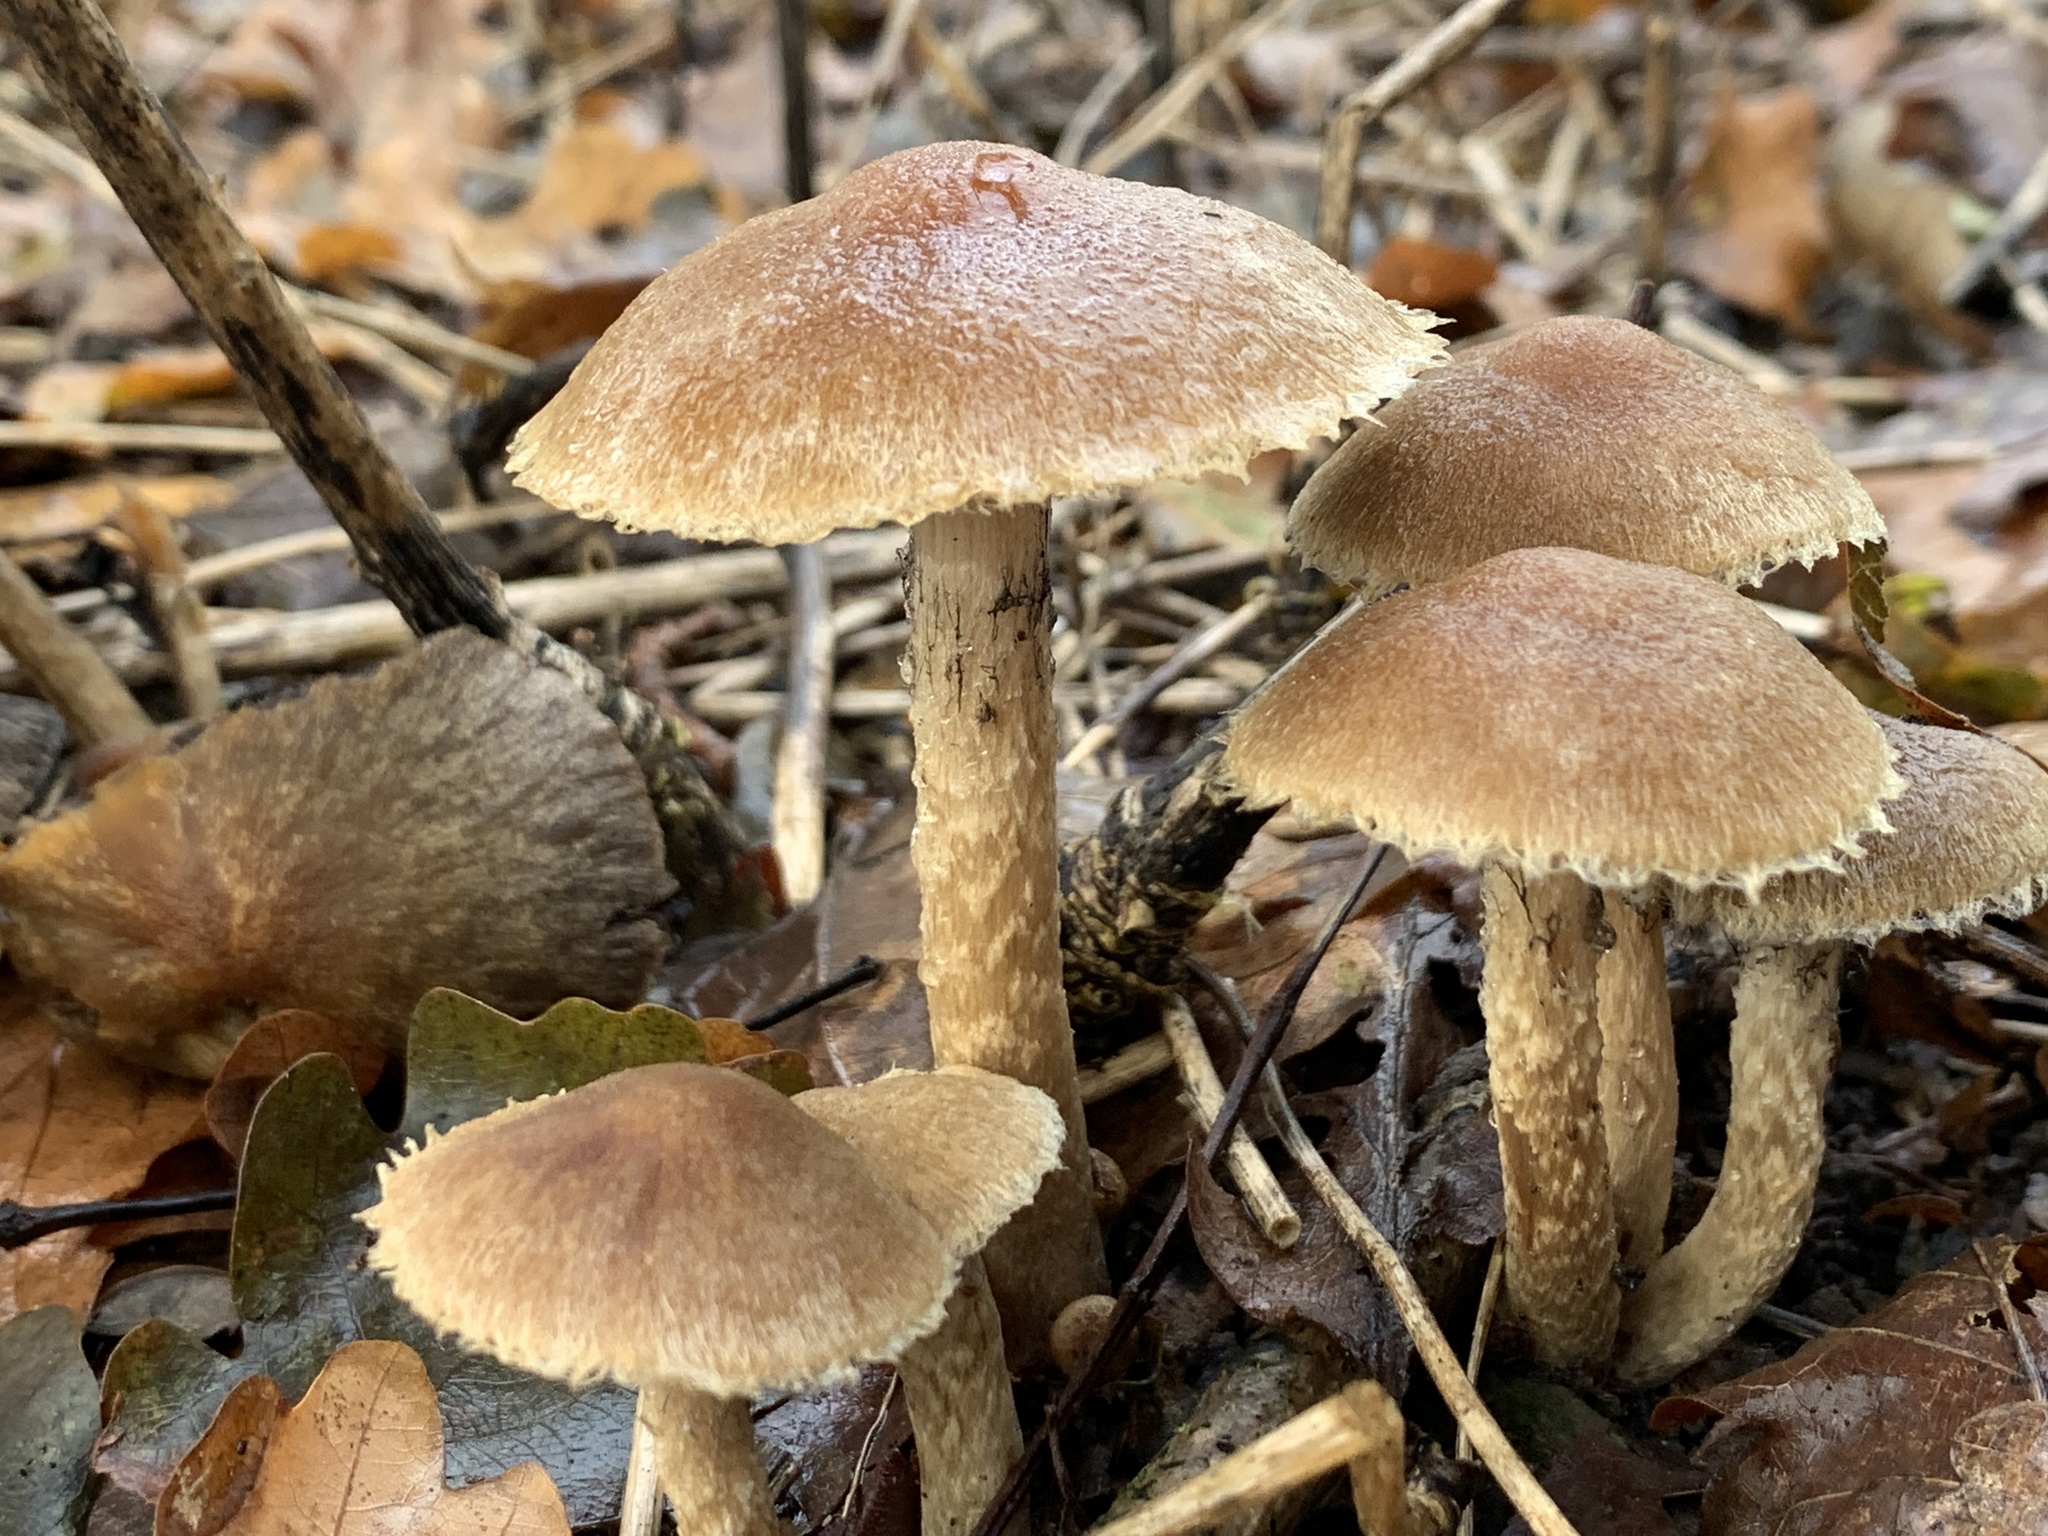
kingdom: Fungi
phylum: Basidiomycota
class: Agaricomycetes
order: Agaricales
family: Psathyrellaceae
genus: Lacrymaria
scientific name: Lacrymaria lacrymabunda
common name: Weeping widow
